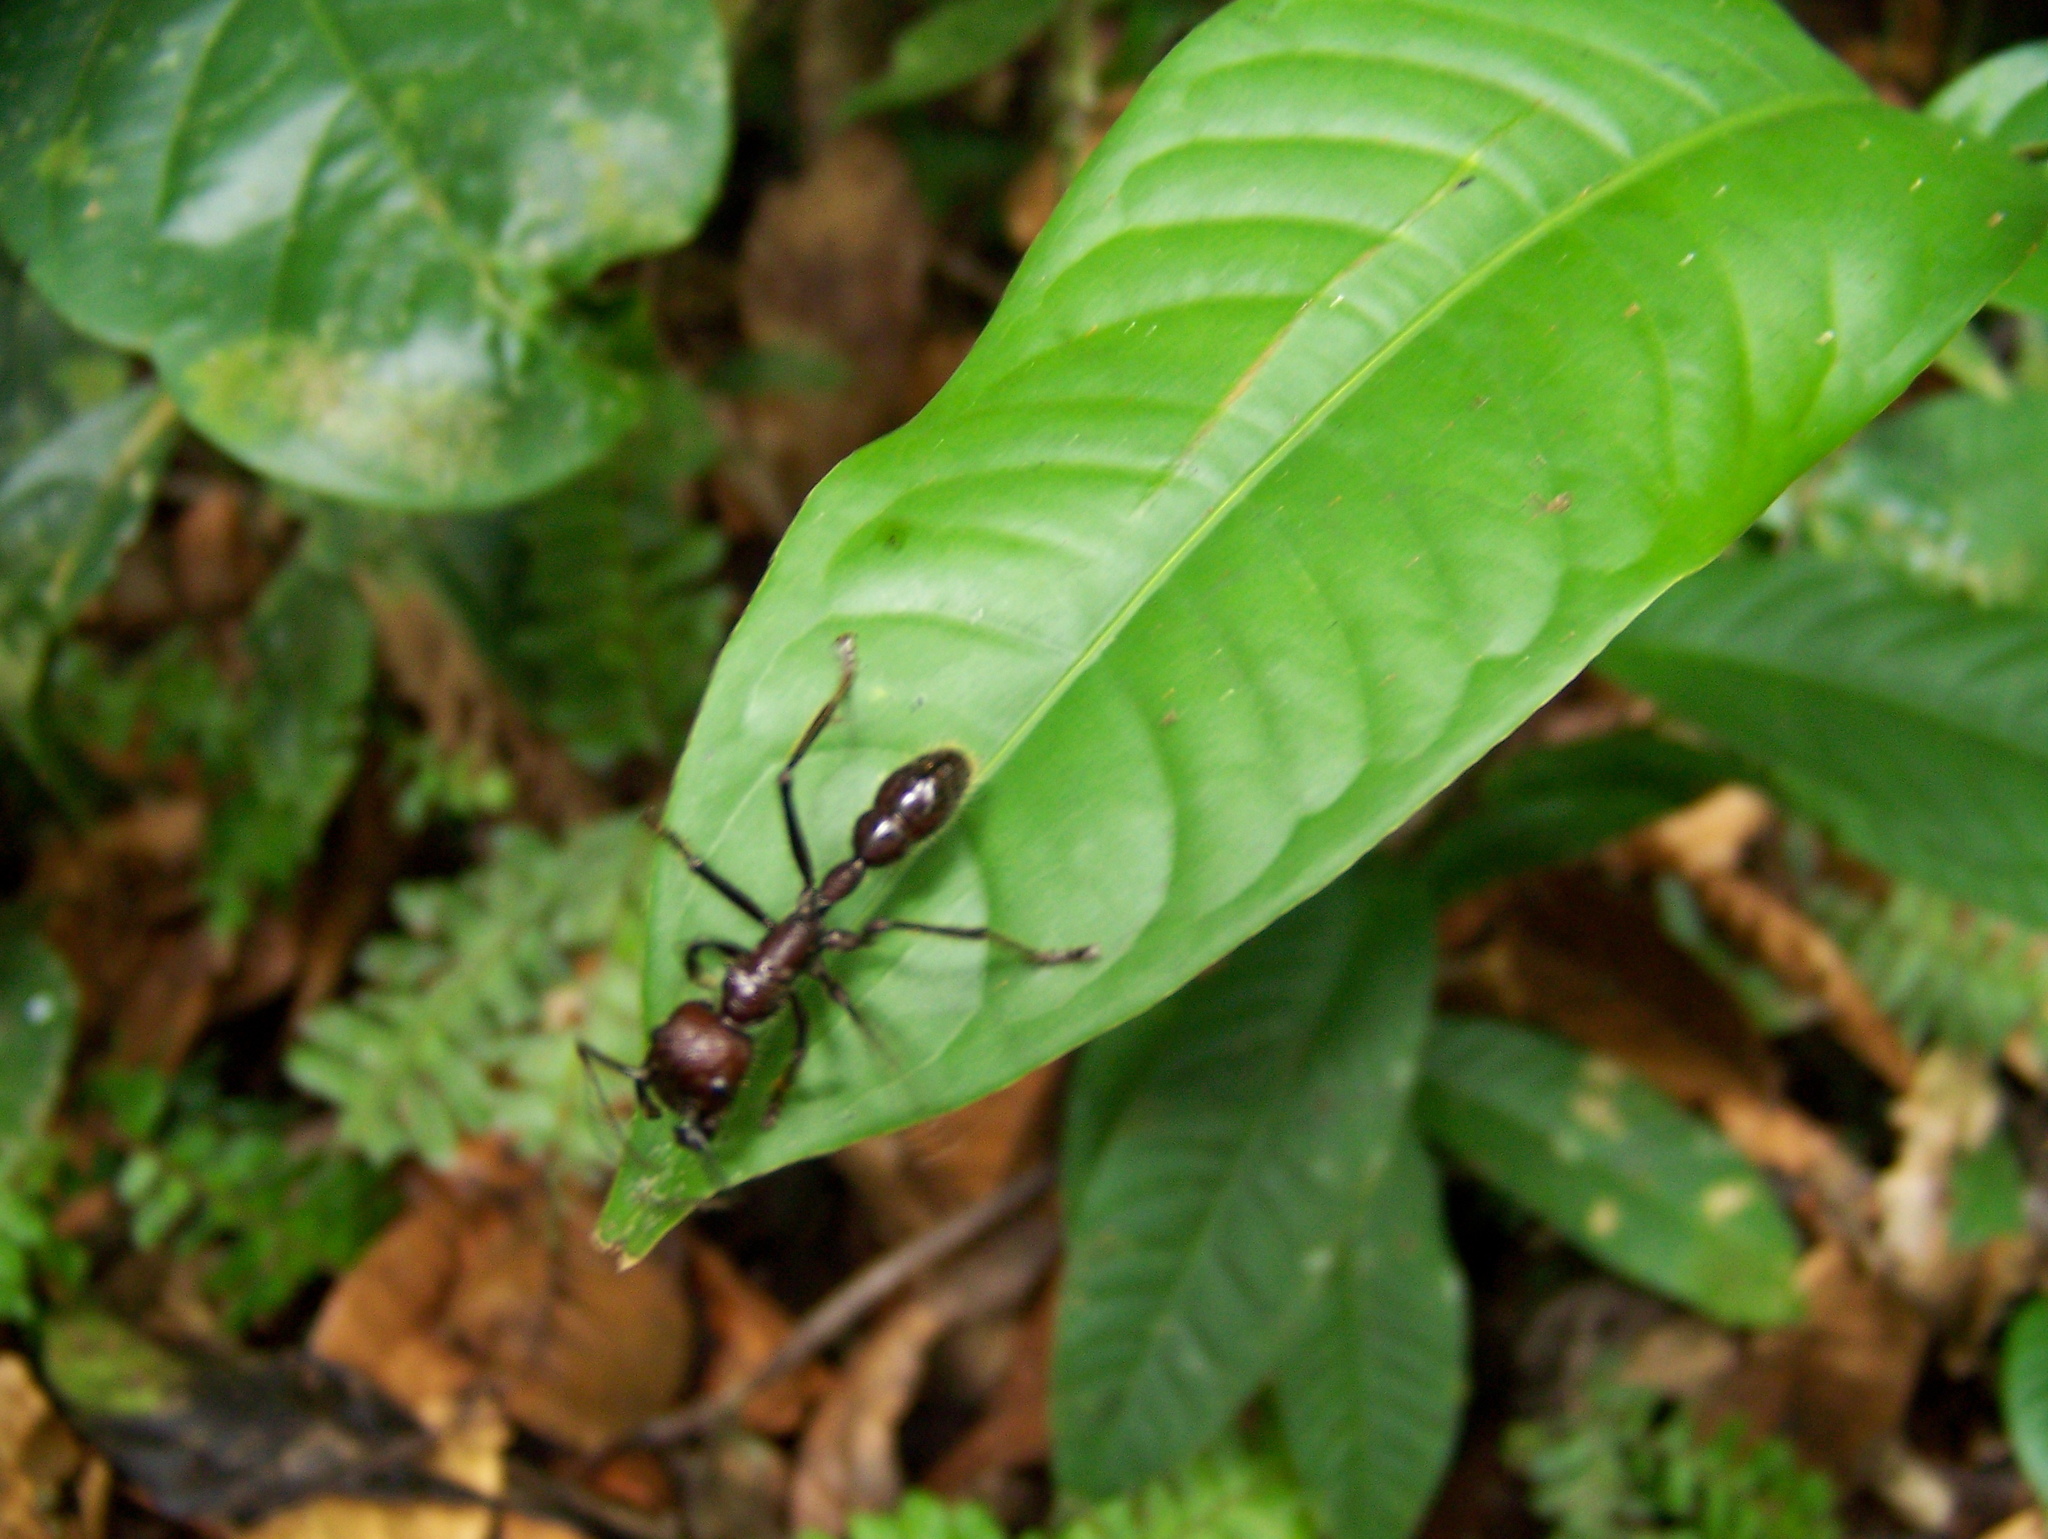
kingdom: Animalia
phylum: Arthropoda
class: Insecta
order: Hymenoptera
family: Formicidae
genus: Paraponera
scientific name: Paraponera clavata
